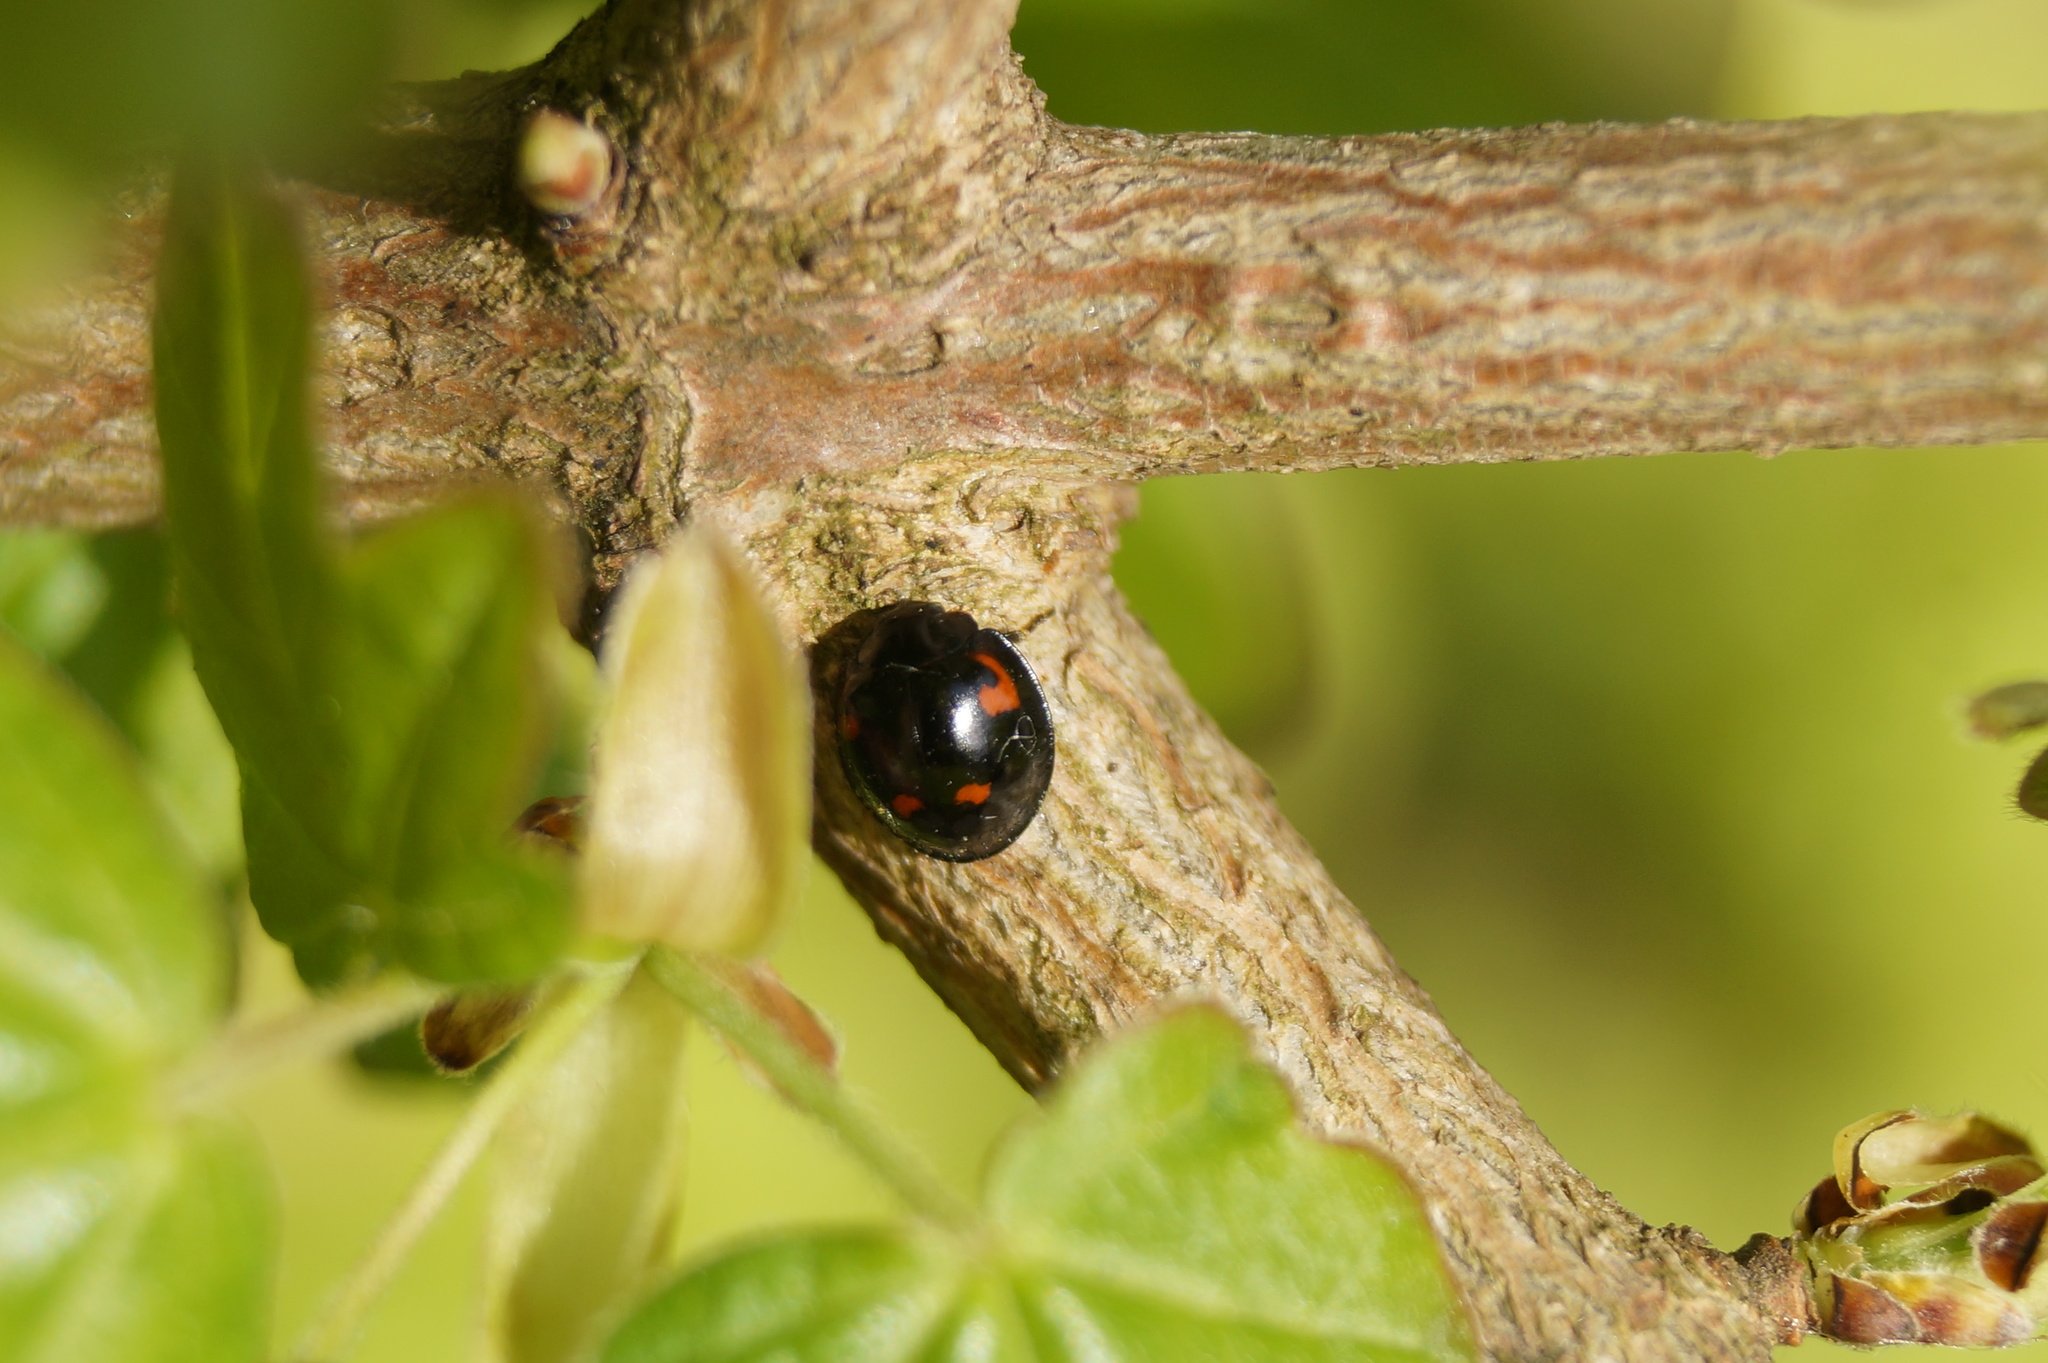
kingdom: Animalia
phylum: Arthropoda
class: Insecta
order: Coleoptera
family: Coccinellidae
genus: Brumus
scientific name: Brumus quadripustulatus
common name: Ladybird beetle
